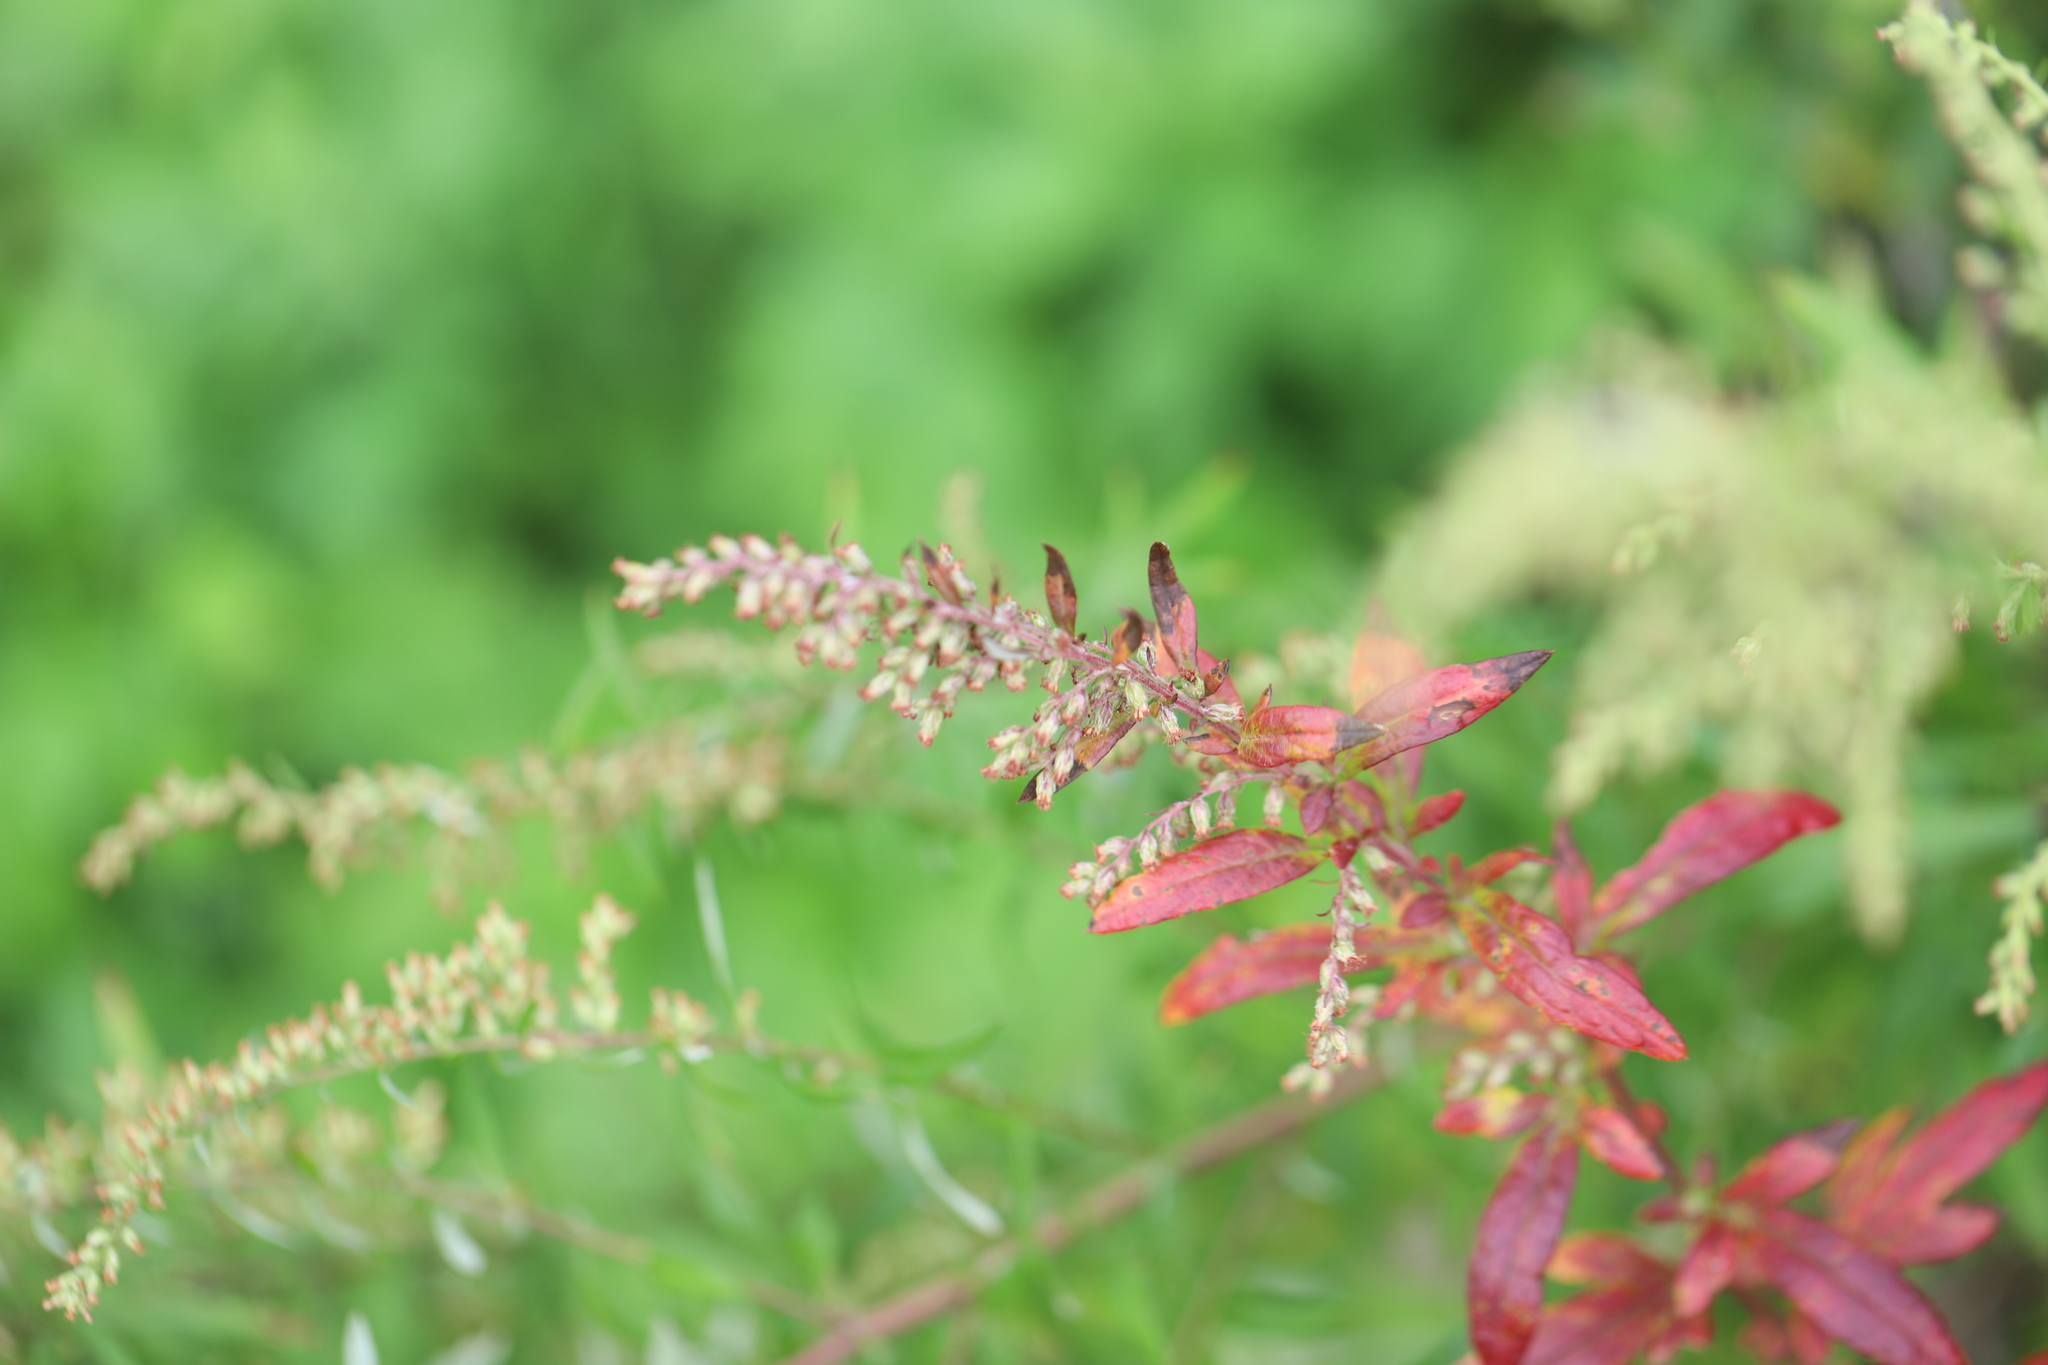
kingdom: Plantae
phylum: Tracheophyta
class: Magnoliopsida
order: Asterales
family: Asteraceae
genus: Artemisia
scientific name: Artemisia vulgaris
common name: Mugwort
